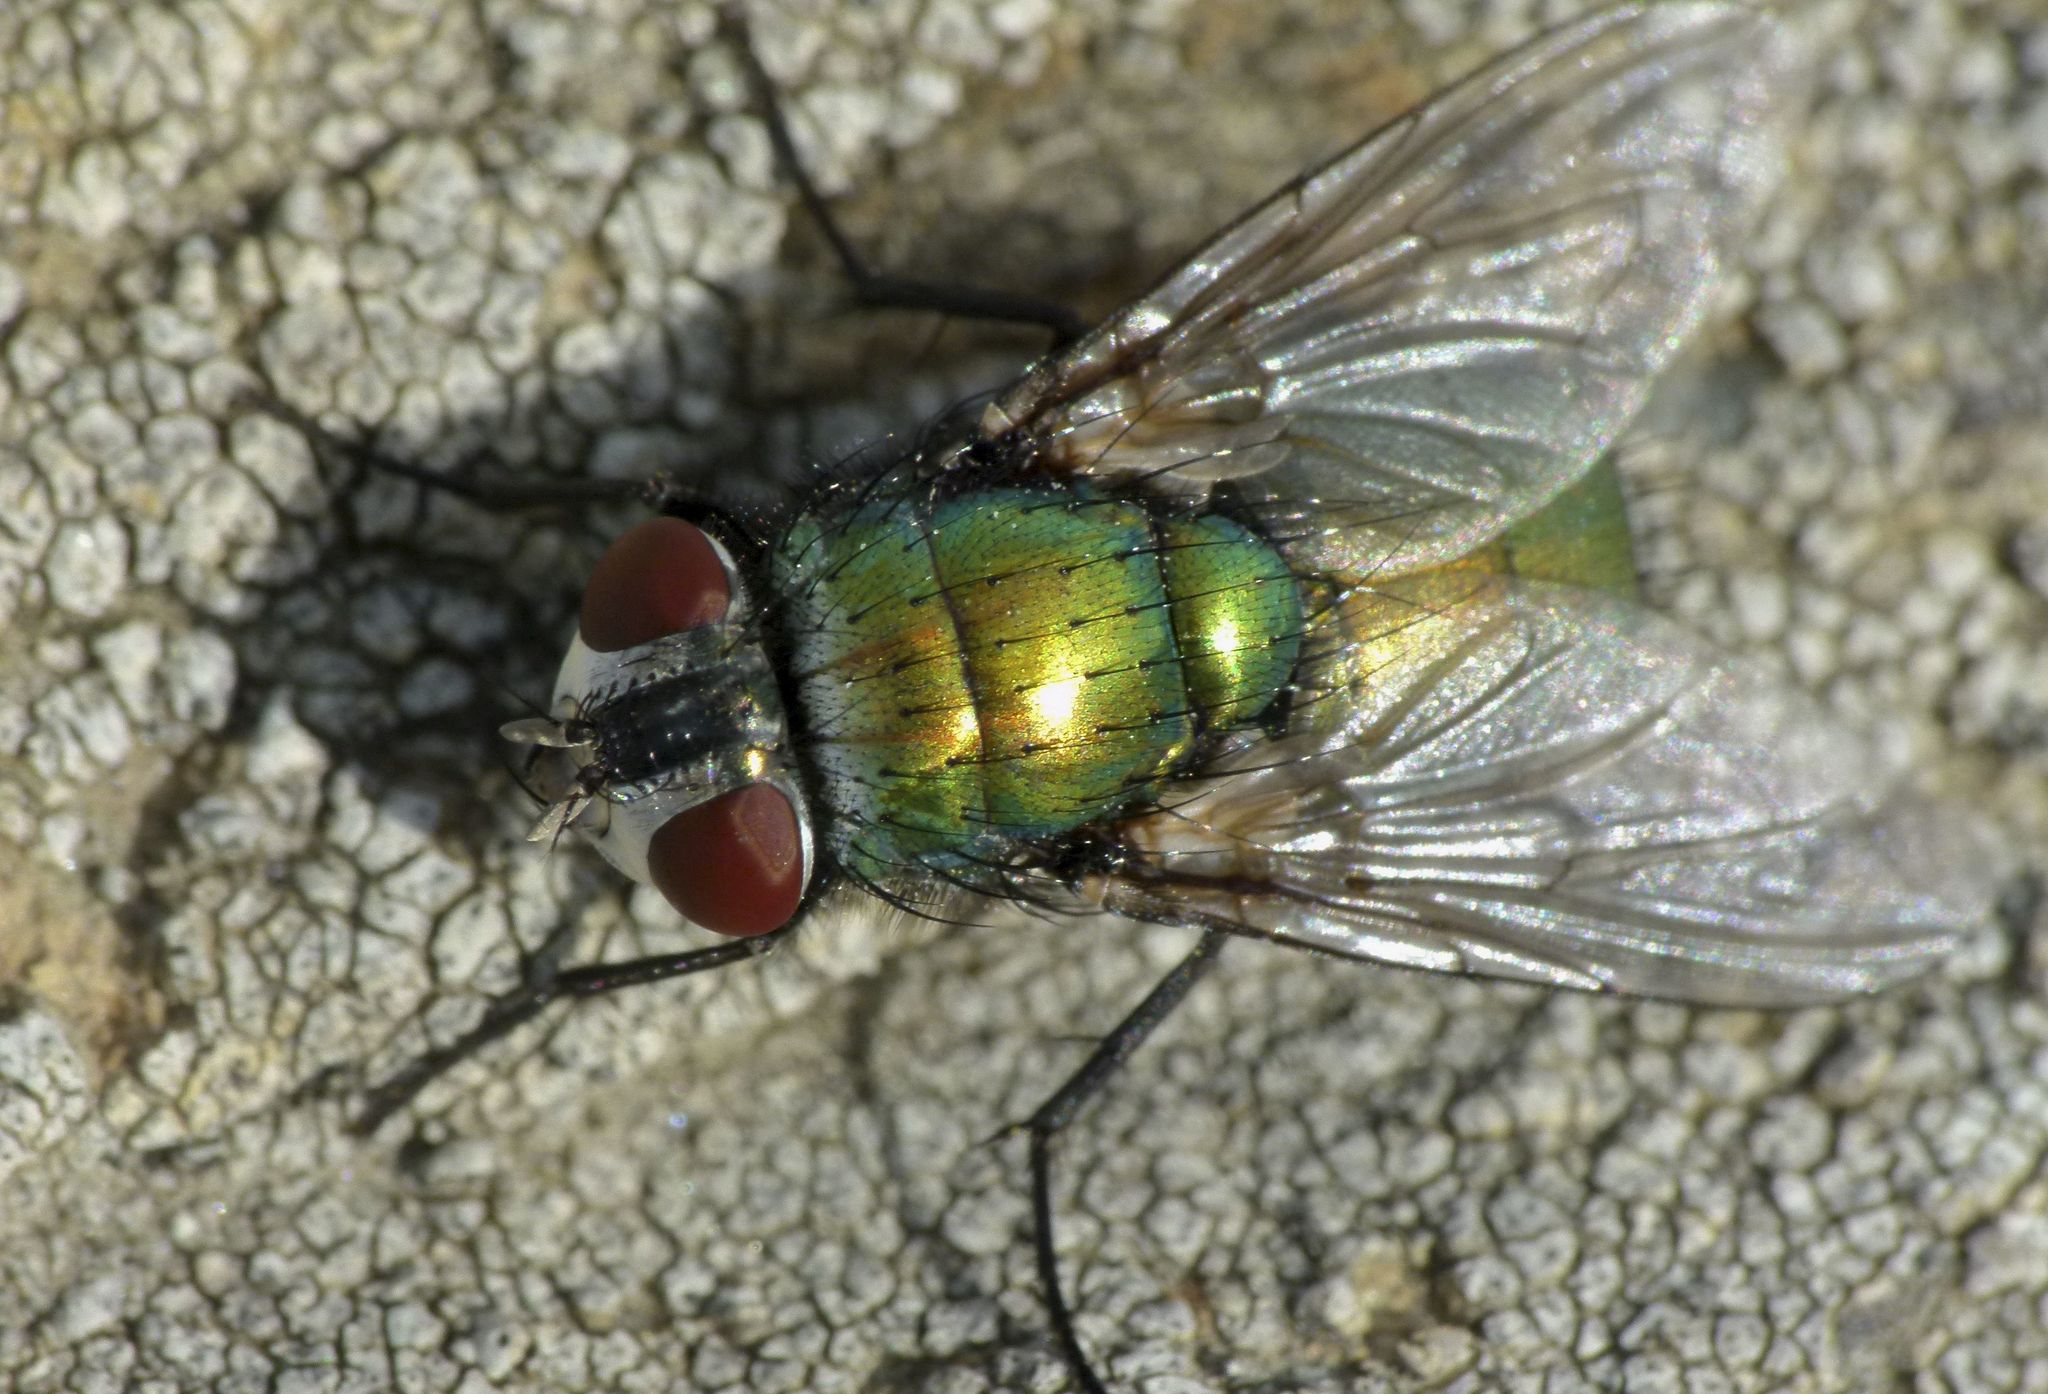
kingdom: Animalia
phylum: Arthropoda
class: Insecta
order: Diptera
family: Calliphoridae
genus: Lucilia
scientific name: Lucilia sericata
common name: Blow fly
